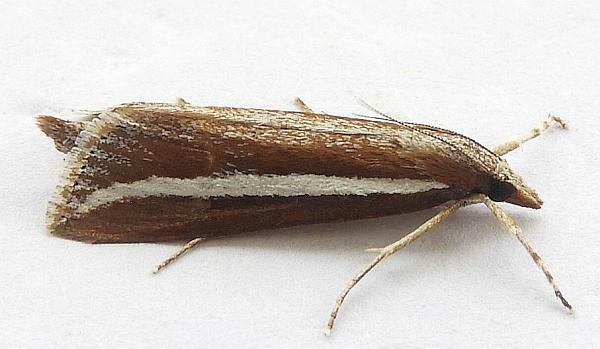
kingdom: Animalia
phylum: Arthropoda
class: Insecta
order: Lepidoptera
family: Crambidae
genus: Carectocultus
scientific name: Carectocultus perstrialis
